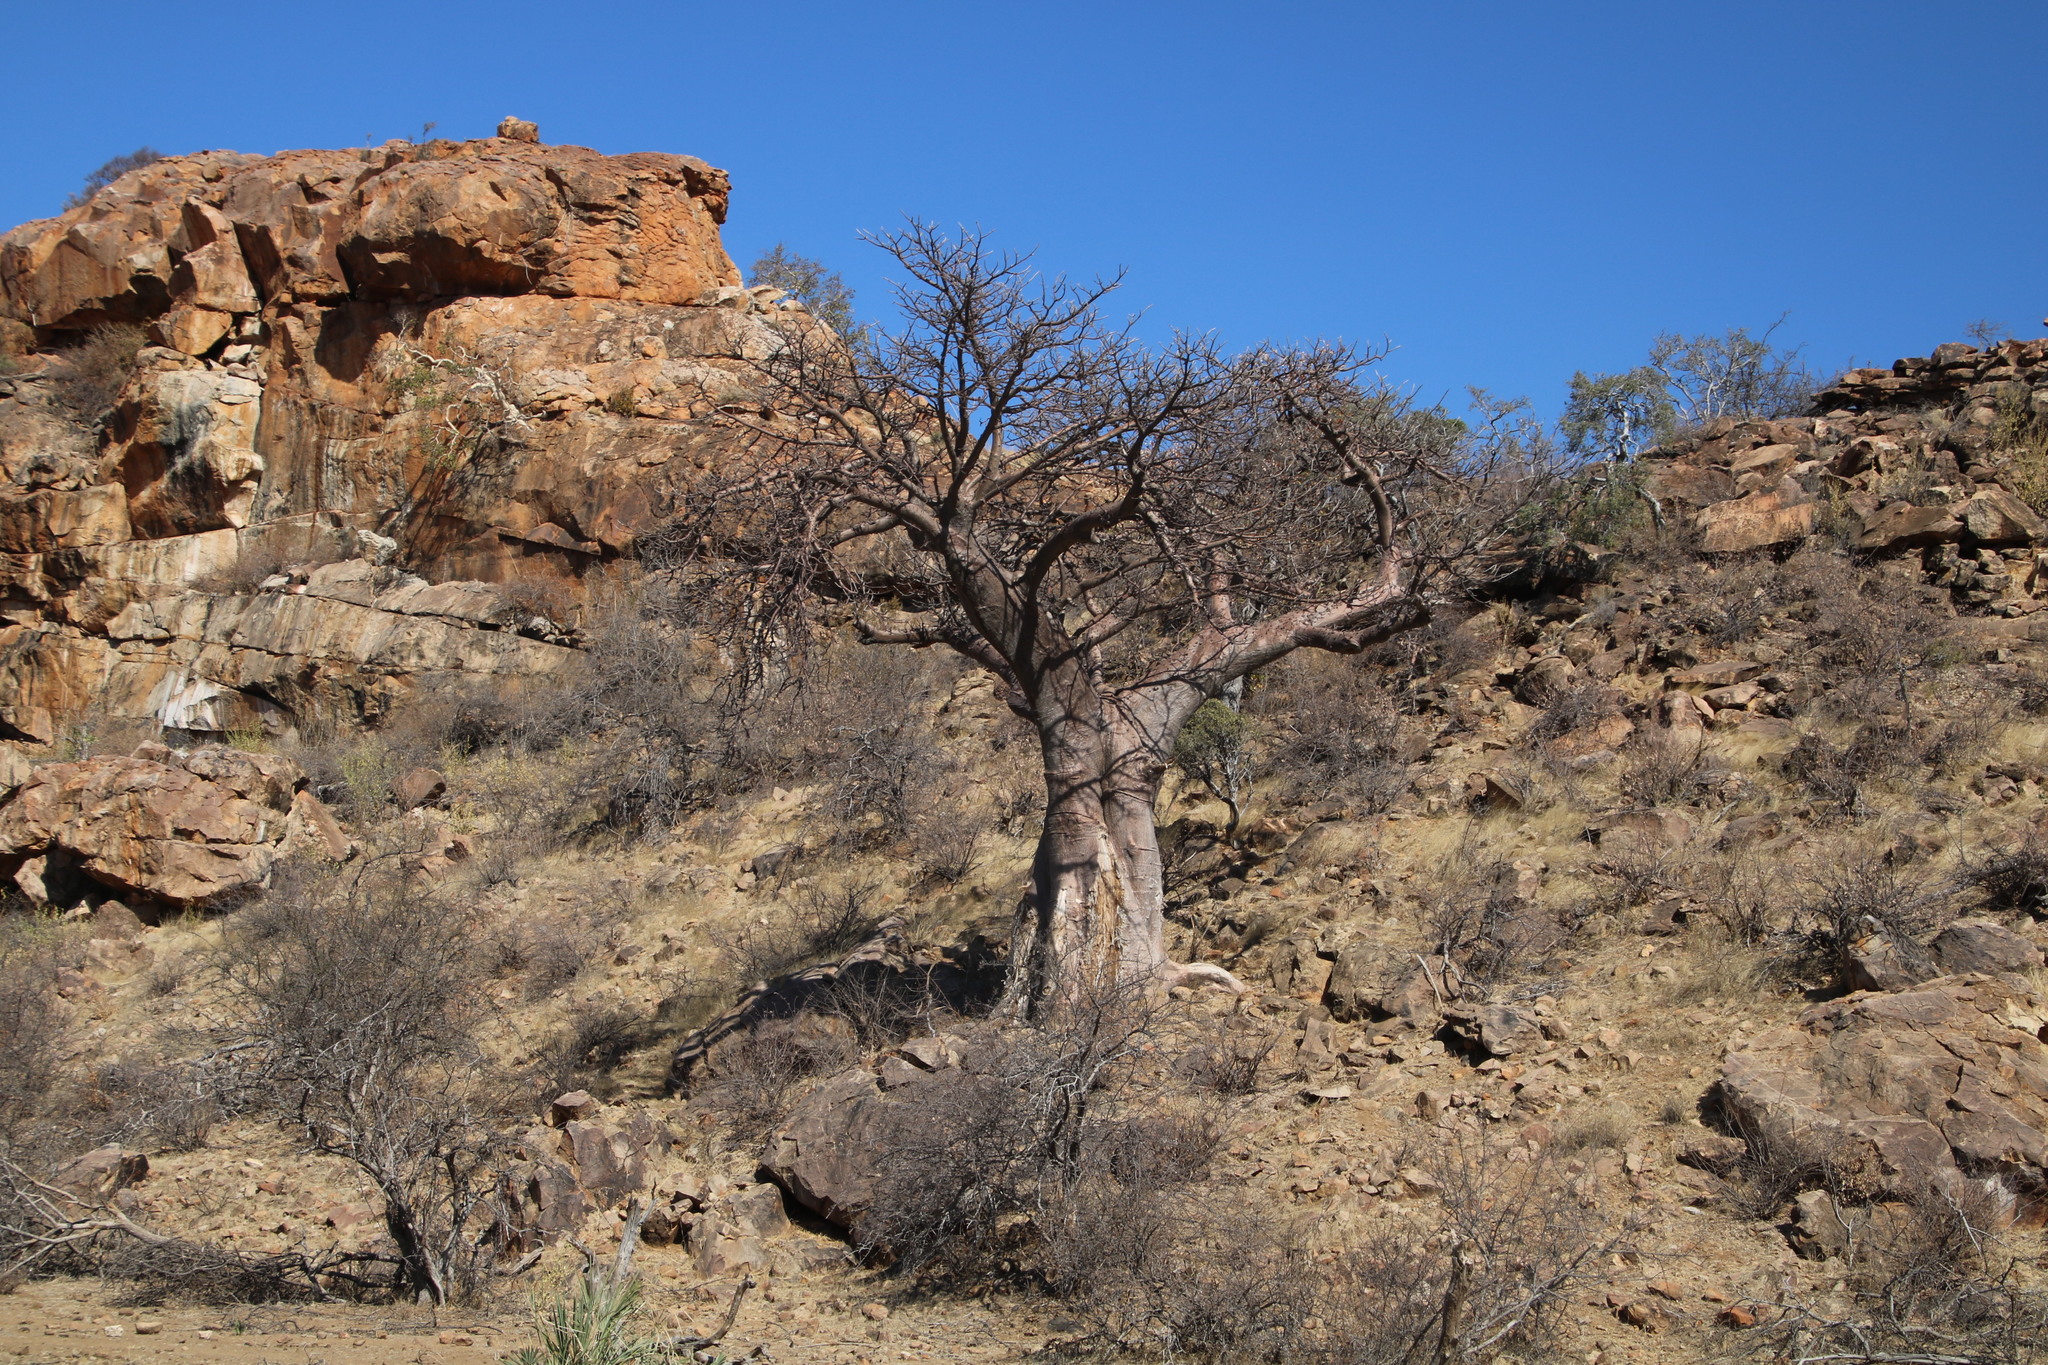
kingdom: Plantae
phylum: Tracheophyta
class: Magnoliopsida
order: Malvales
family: Malvaceae
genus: Adansonia
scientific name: Adansonia digitata
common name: Dead-rat-tree
